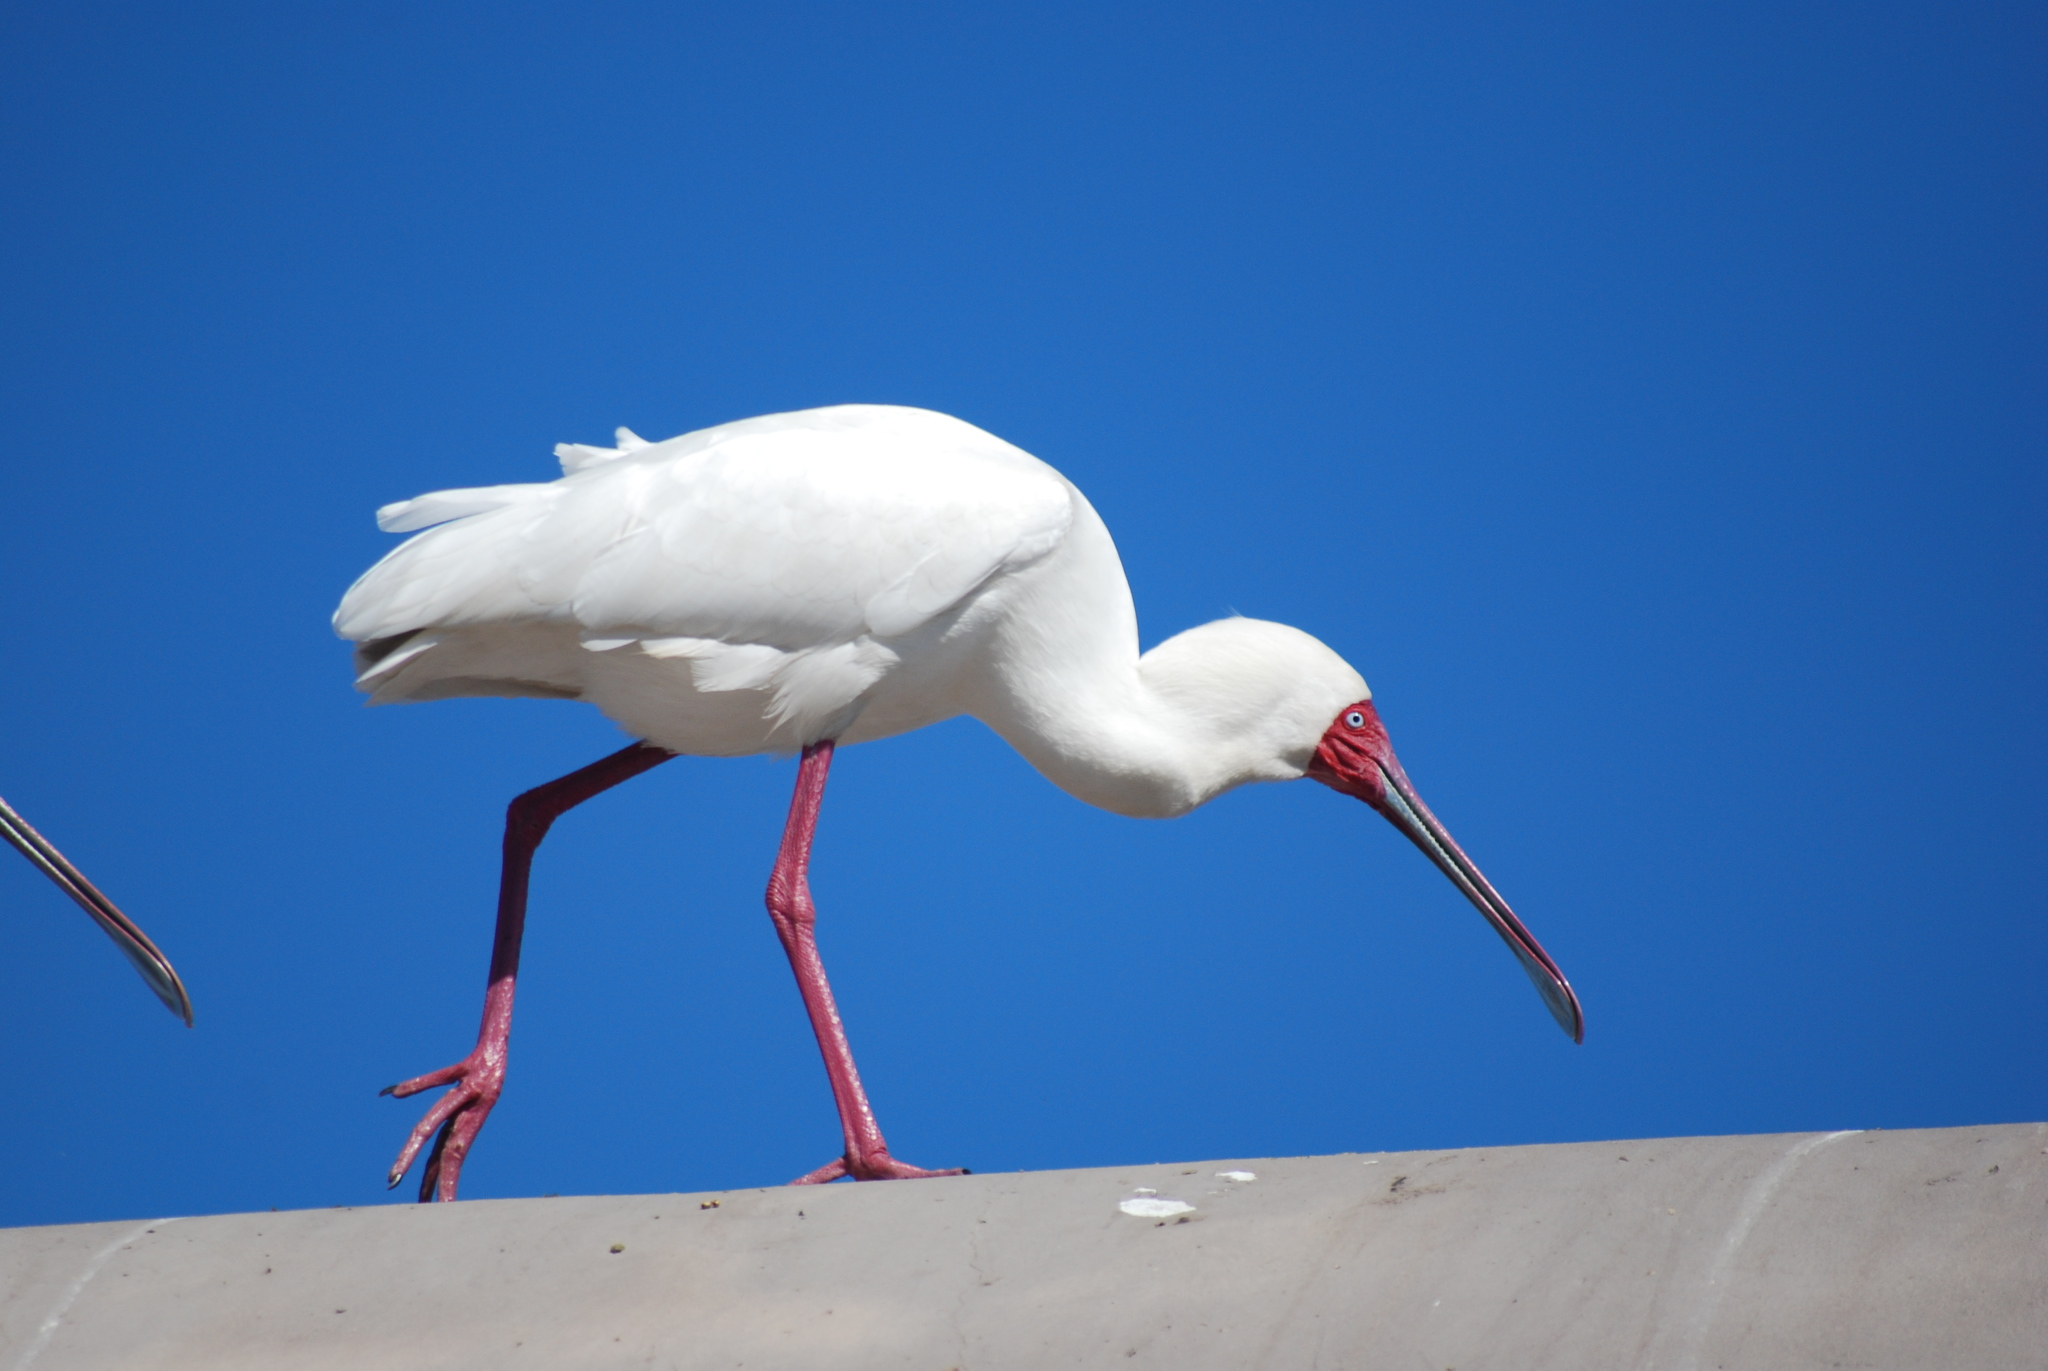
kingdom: Animalia
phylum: Chordata
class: Aves
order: Pelecaniformes
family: Threskiornithidae
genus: Platalea
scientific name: Platalea alba
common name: African spoonbill
